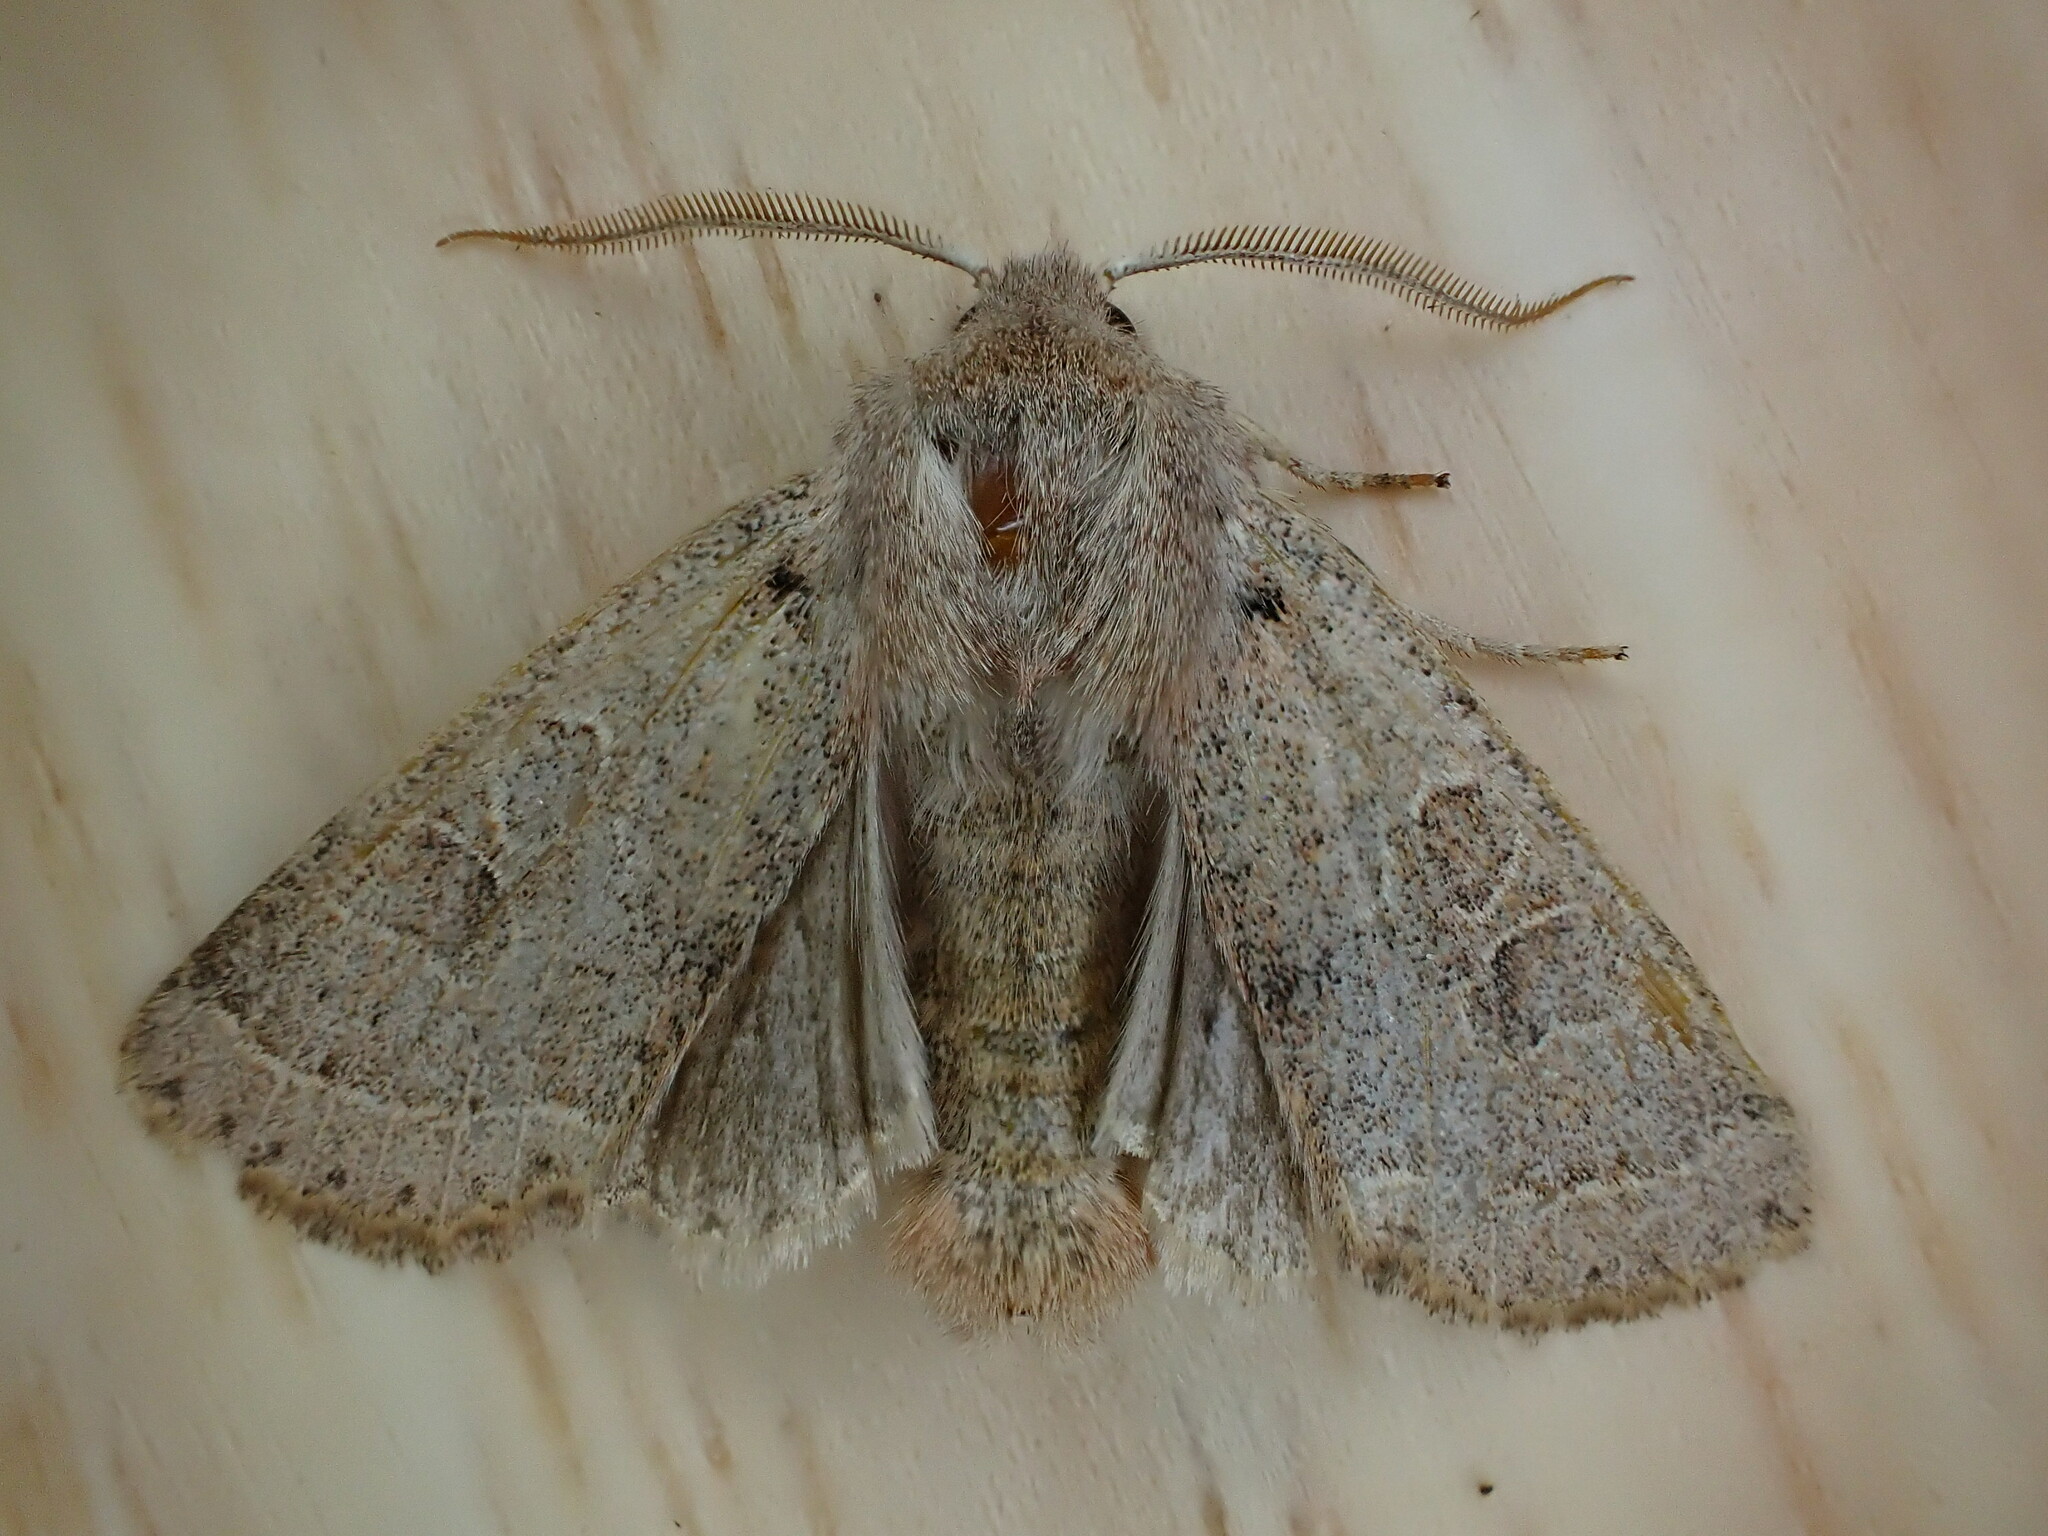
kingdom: Animalia
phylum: Arthropoda
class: Insecta
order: Lepidoptera
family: Noctuidae
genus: Orthosia
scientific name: Orthosia cerasi
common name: Common quaker
